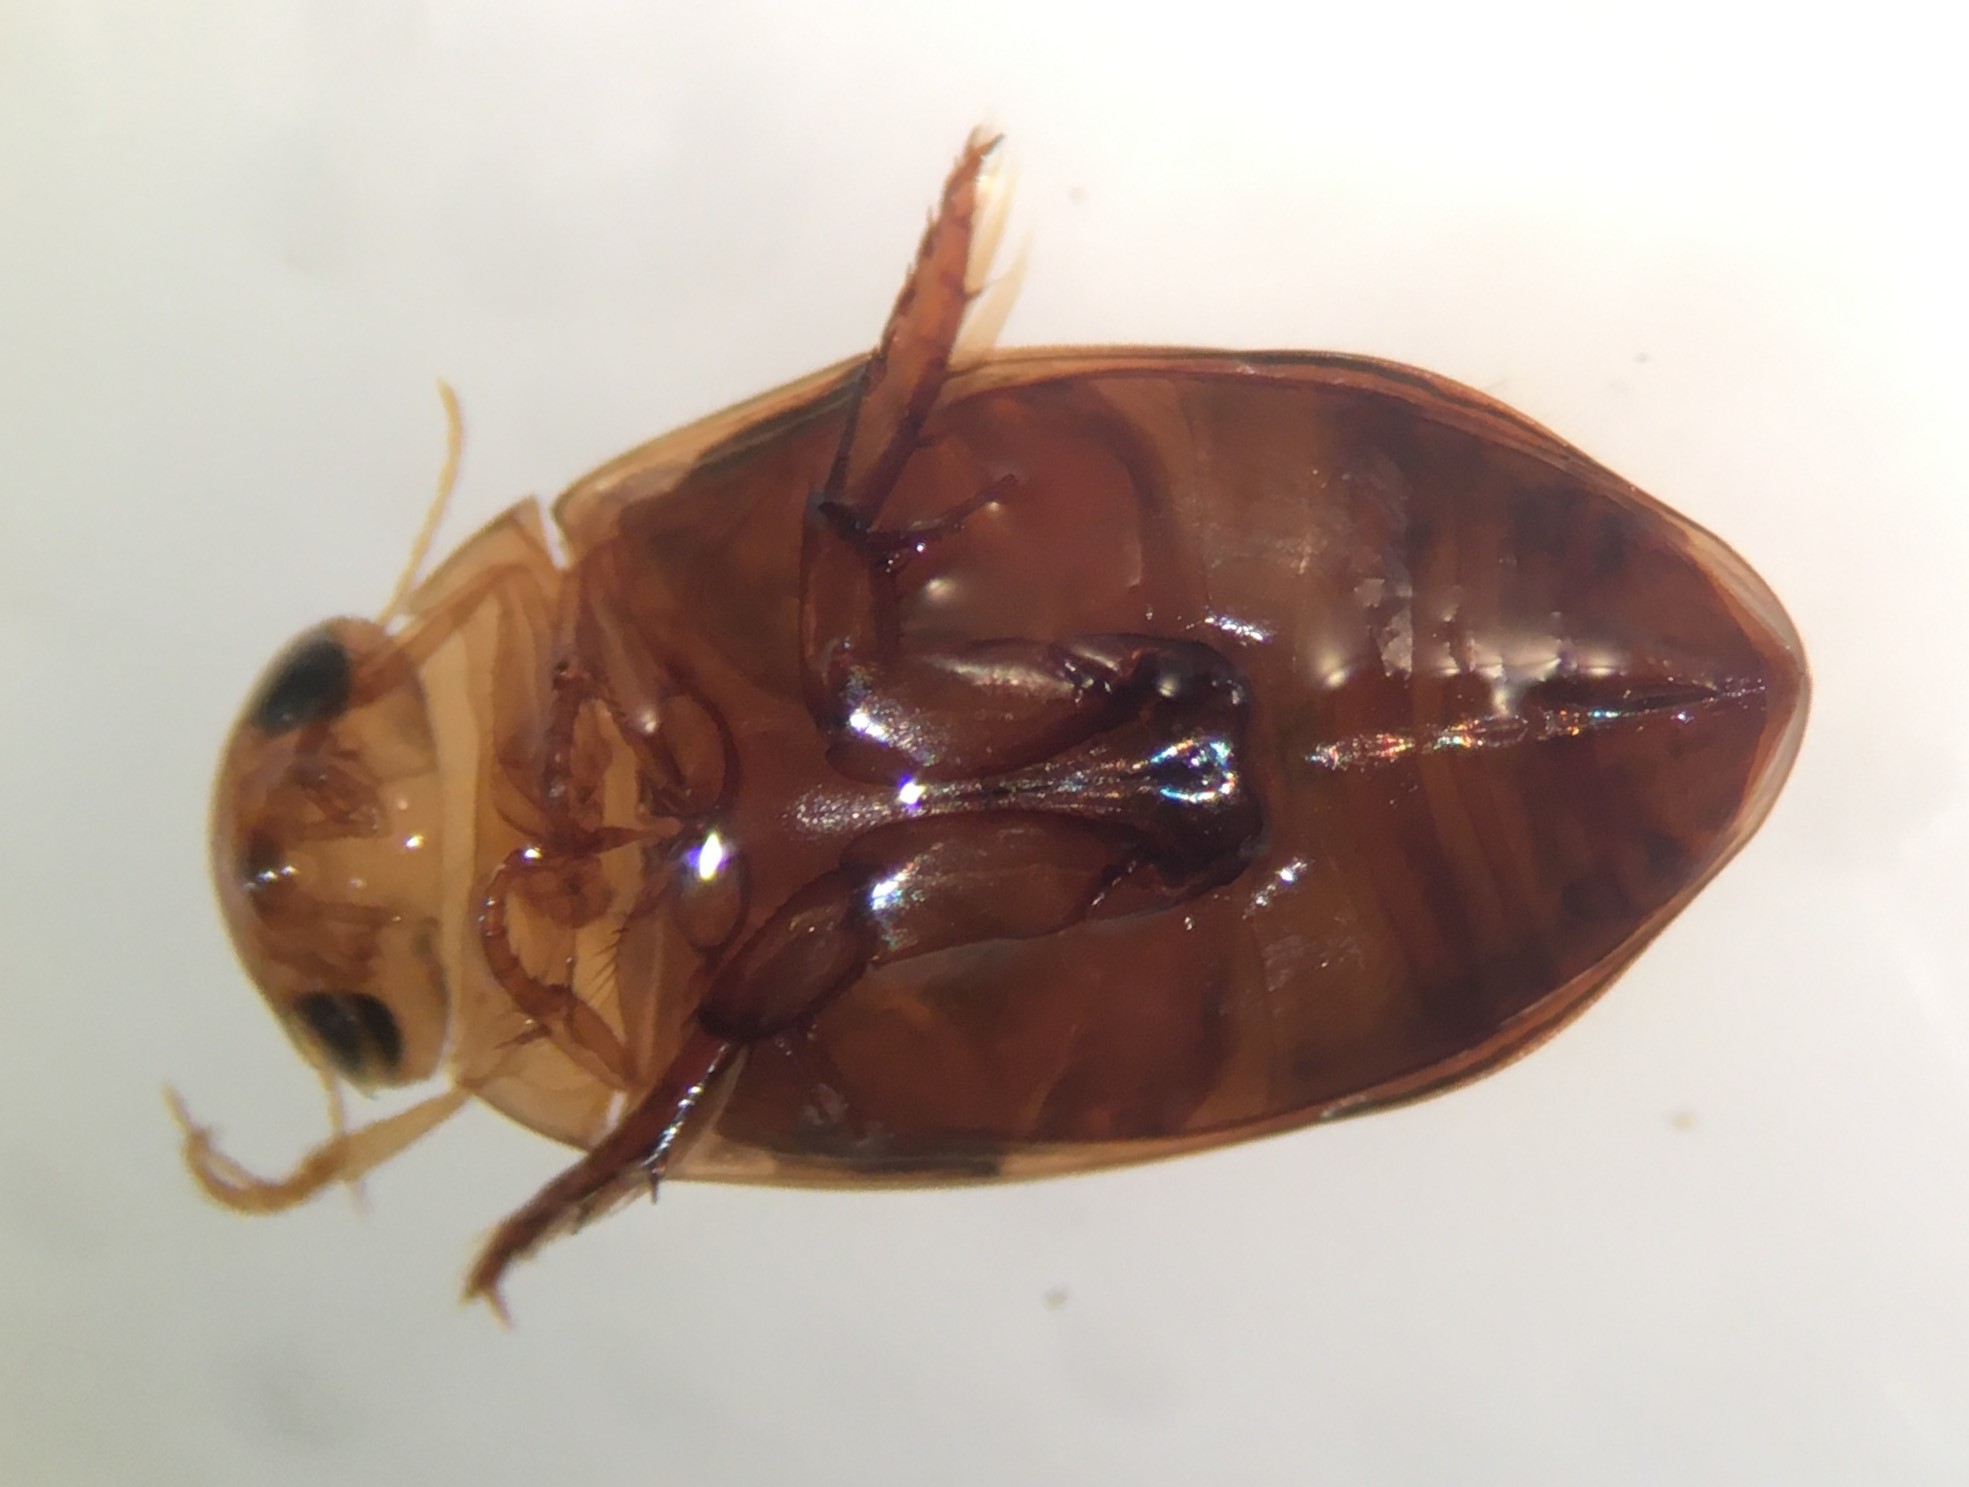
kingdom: Animalia
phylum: Arthropoda
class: Insecta
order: Coleoptera
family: Dytiscidae
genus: Laccophilus
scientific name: Laccophilus proximus
